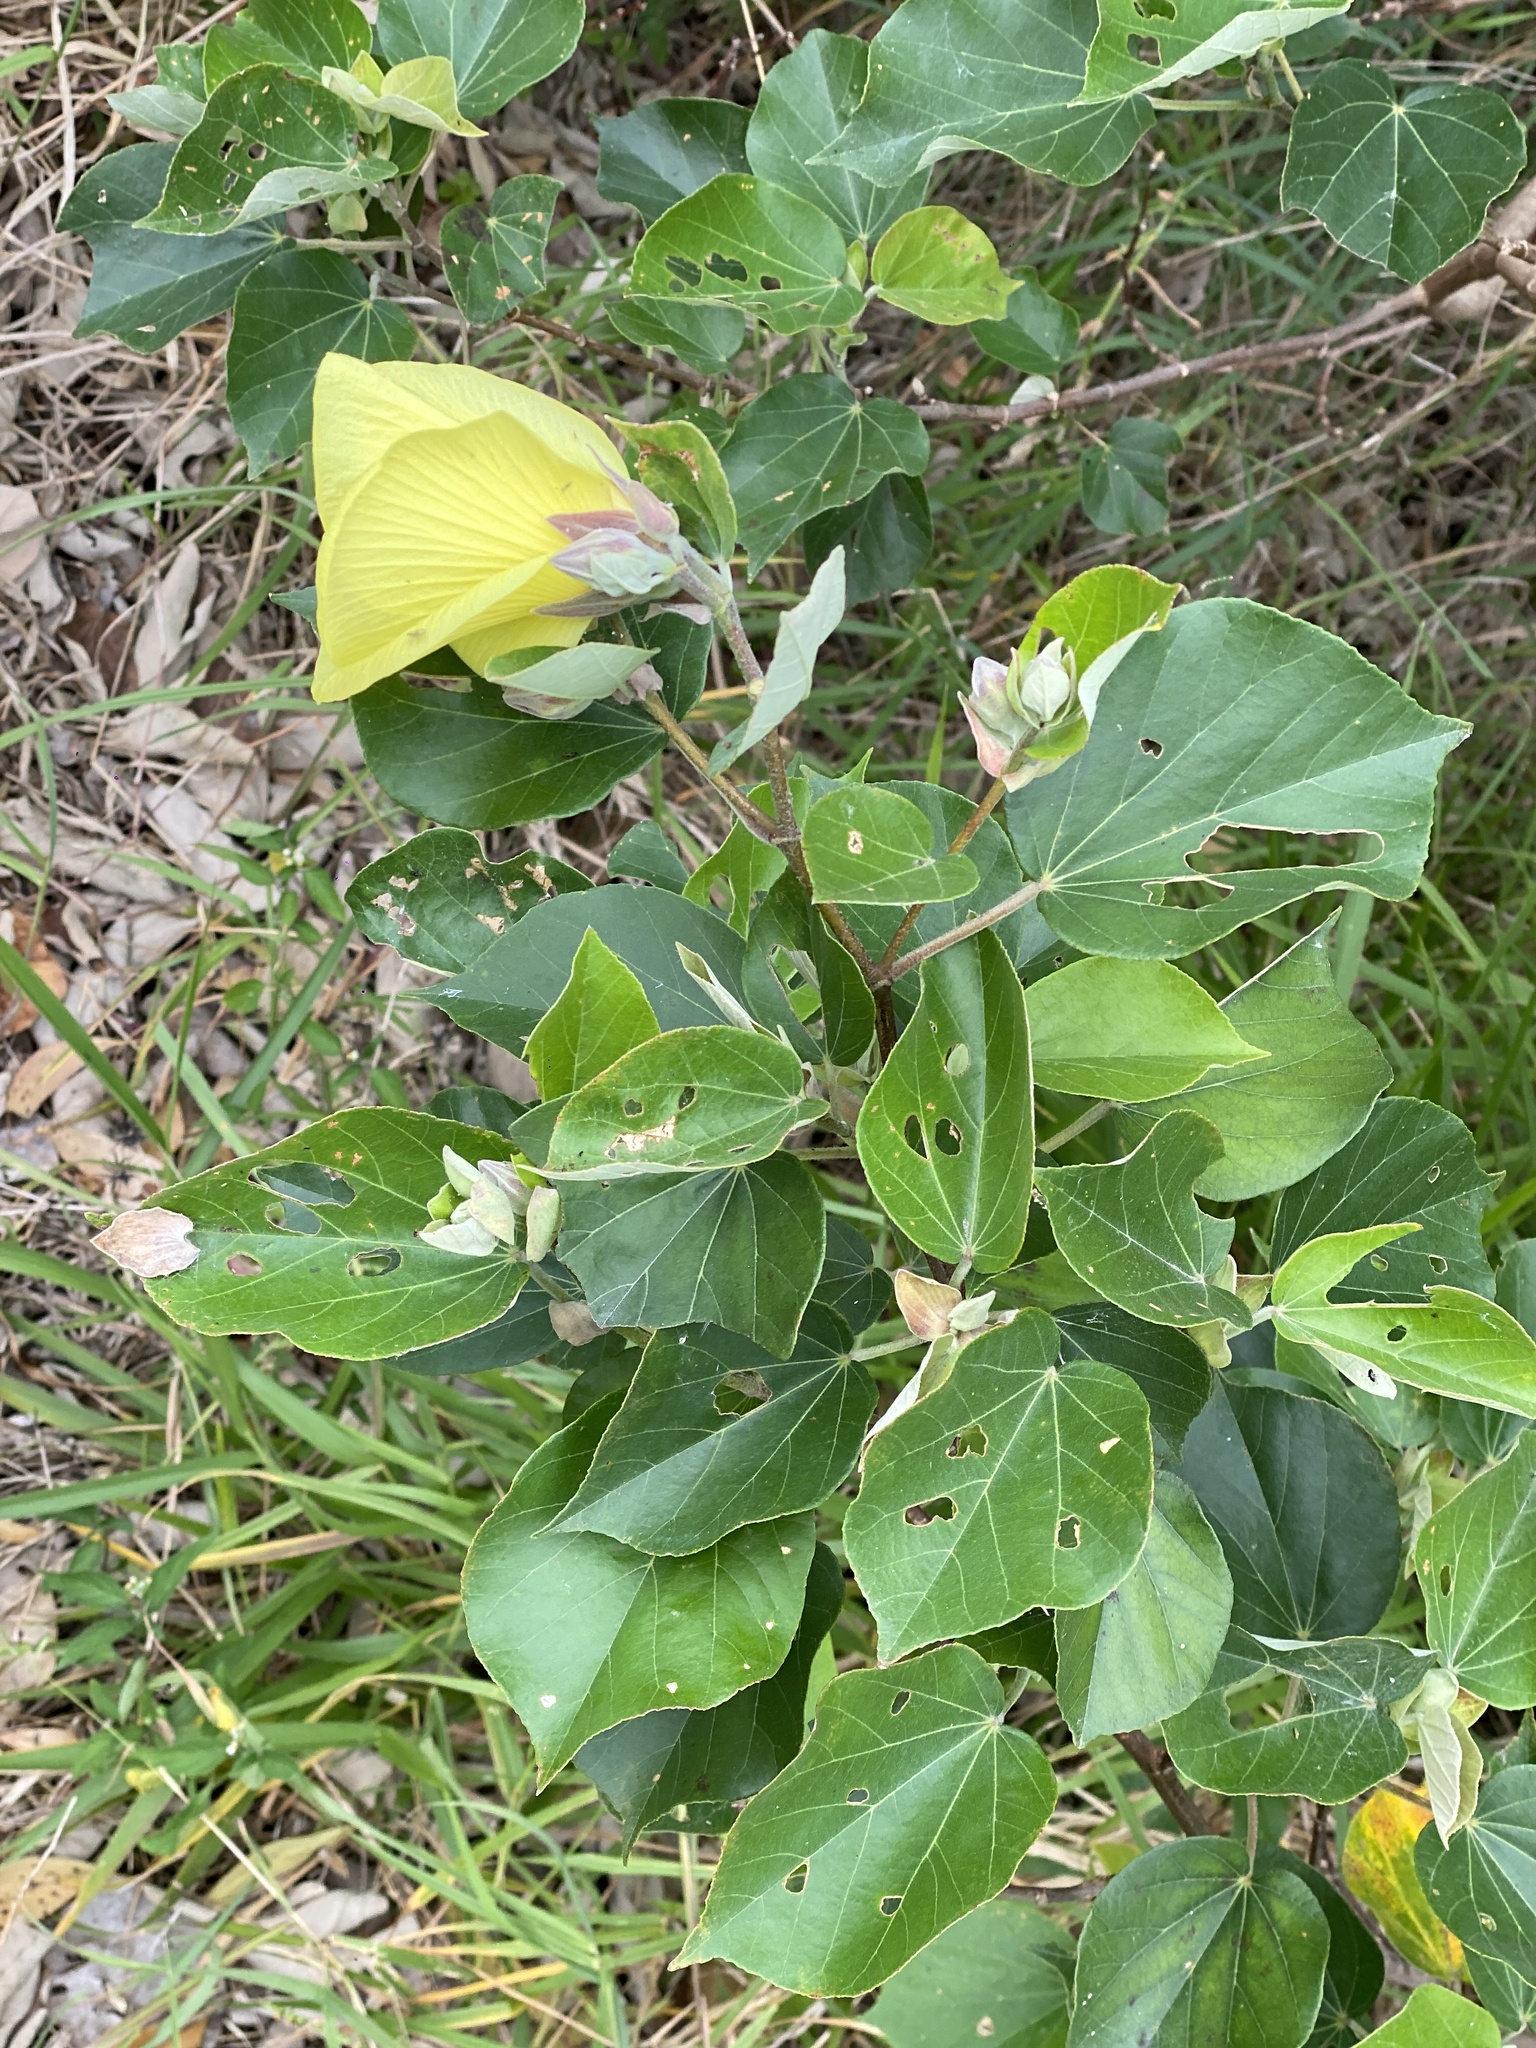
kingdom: Plantae
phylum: Tracheophyta
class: Magnoliopsida
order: Malvales
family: Malvaceae
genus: Talipariti
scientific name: Talipariti tiliaceum
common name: Sea hibiscus
